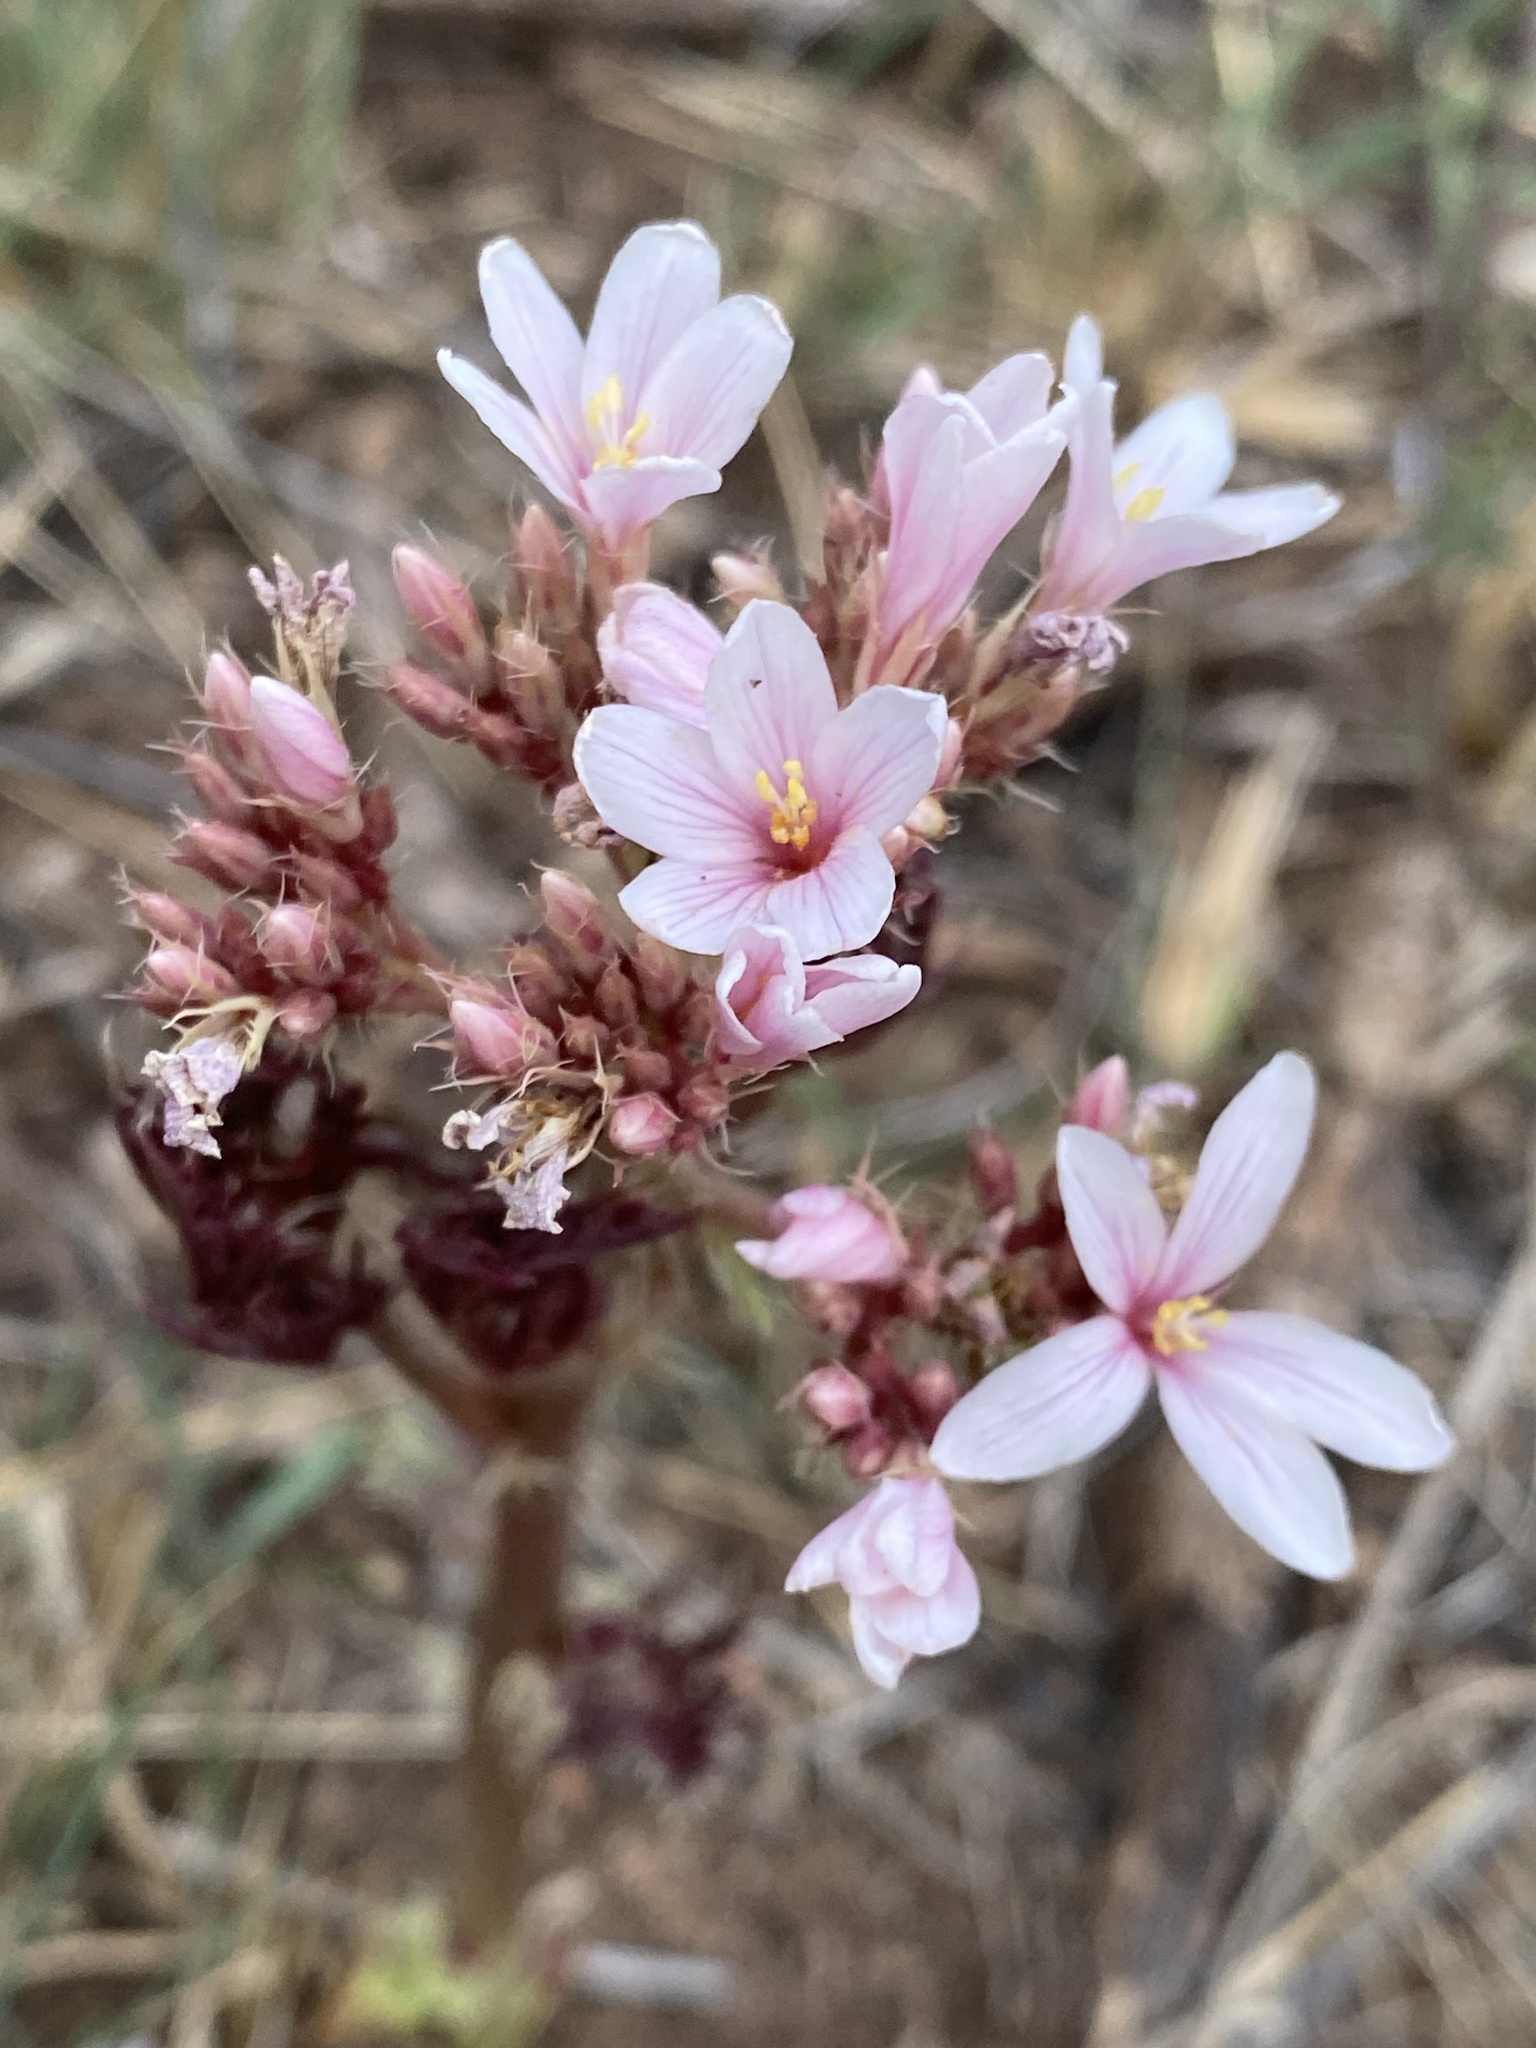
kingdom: Plantae
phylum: Tracheophyta
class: Magnoliopsida
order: Malpighiales
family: Euphorbiaceae
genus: Jatropha
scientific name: Jatropha macrorhiza
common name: Ragged nettlespurge
